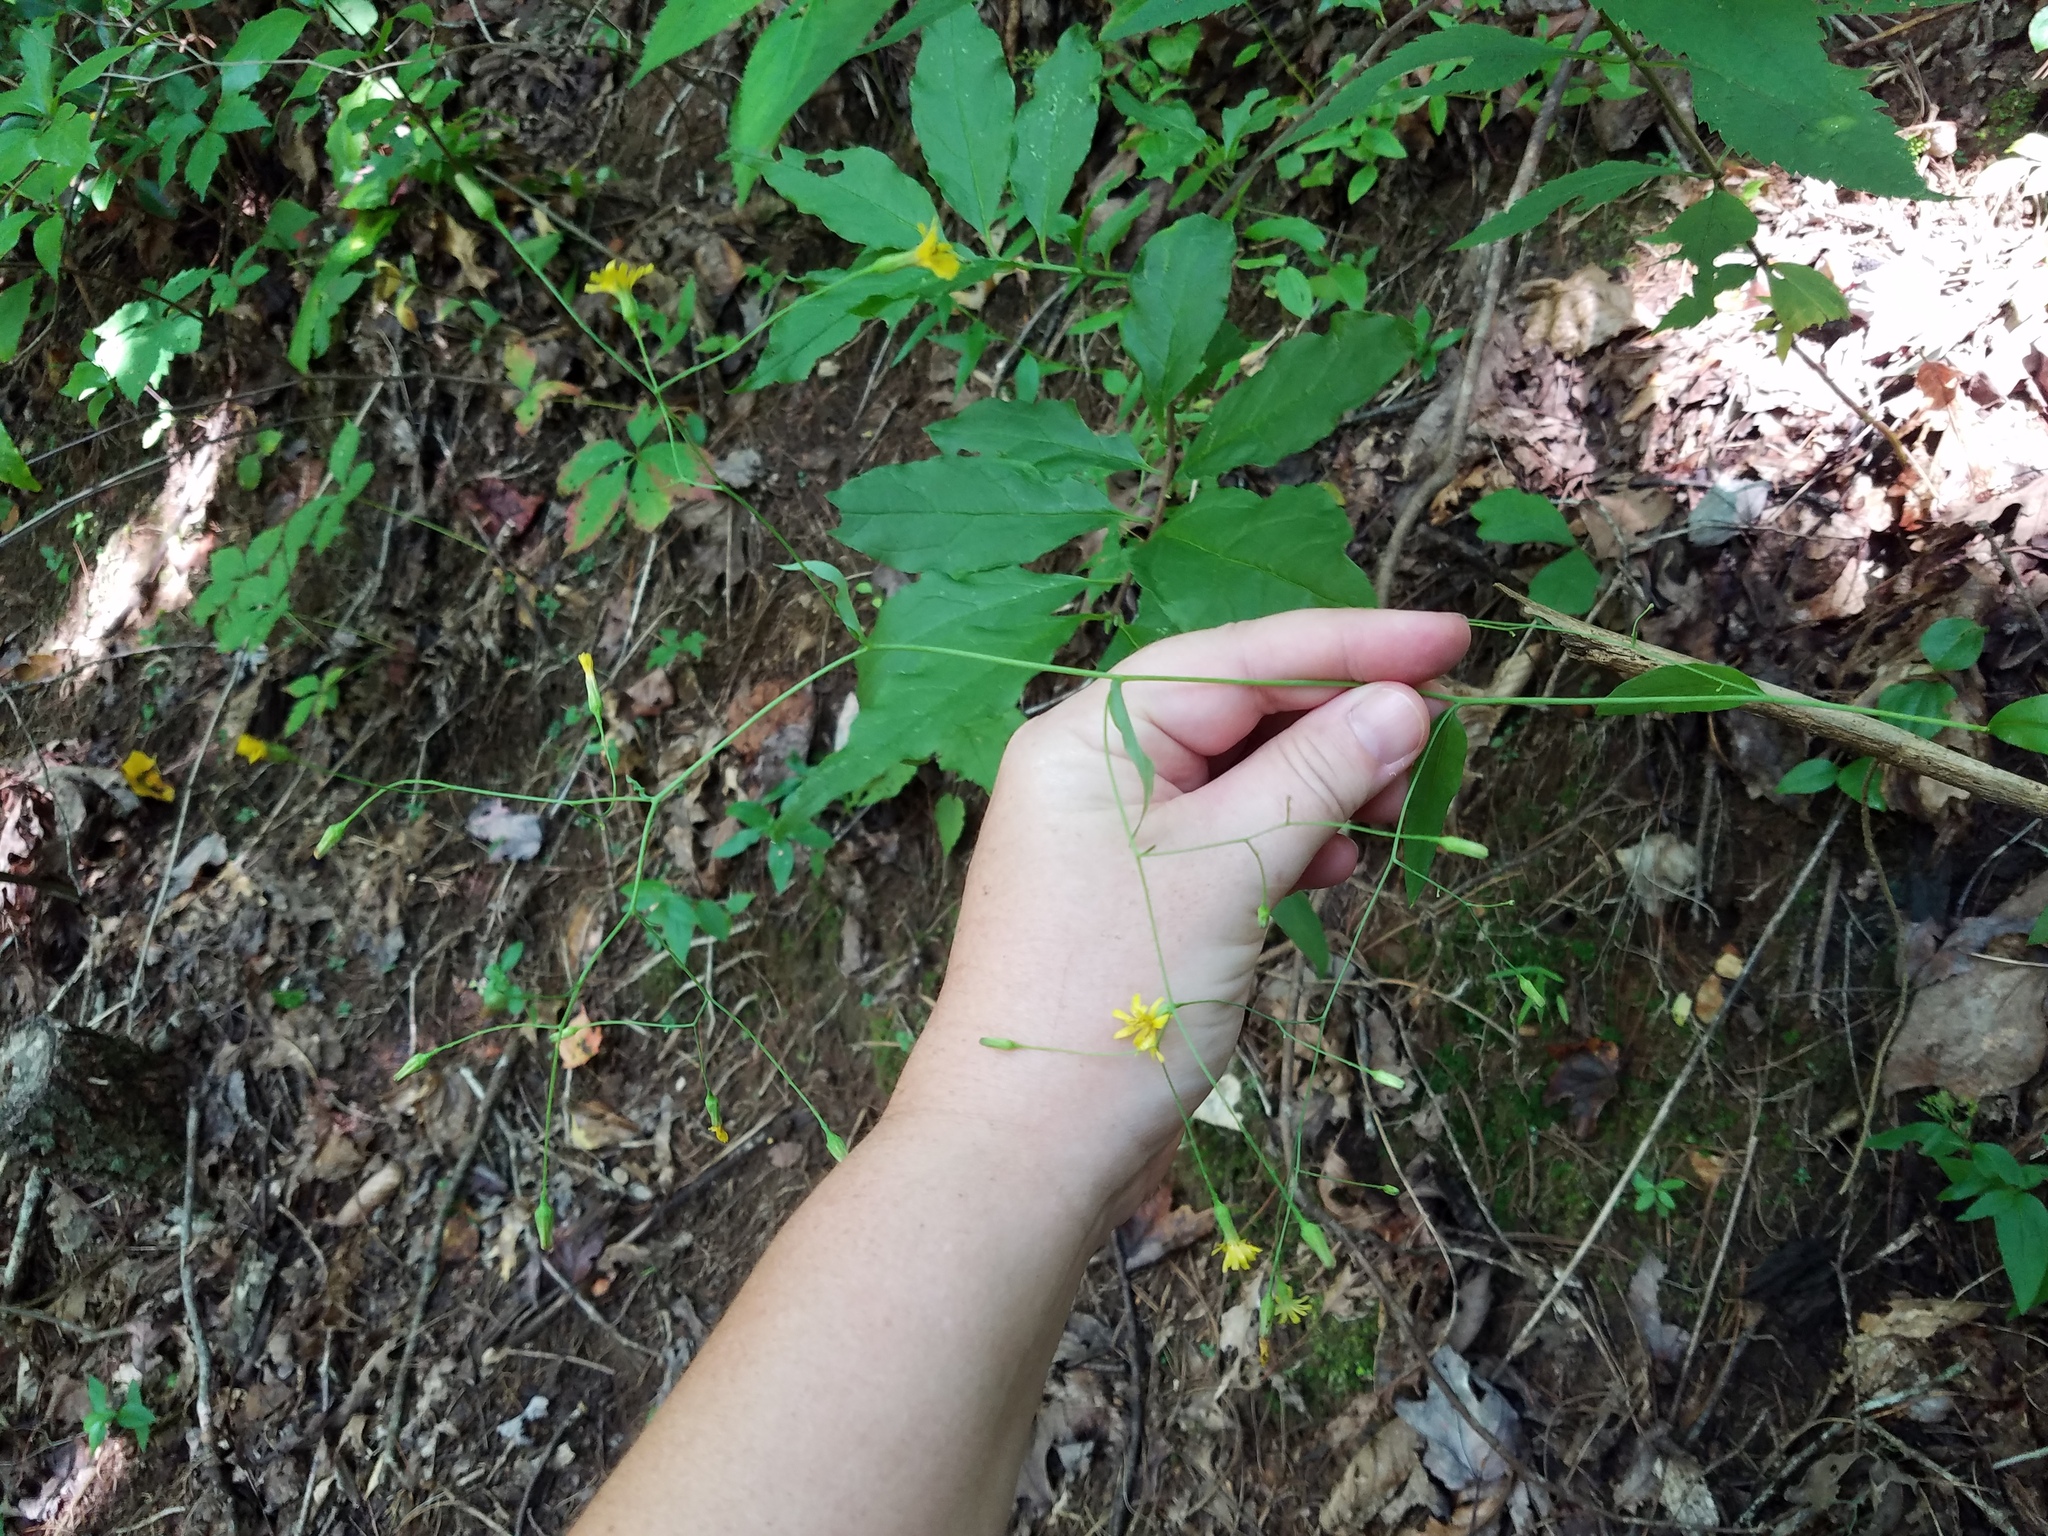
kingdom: Plantae
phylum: Tracheophyta
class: Magnoliopsida
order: Asterales
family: Asteraceae
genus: Hieracium
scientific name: Hieracium paniculatum
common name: Allegheny hawkweed
